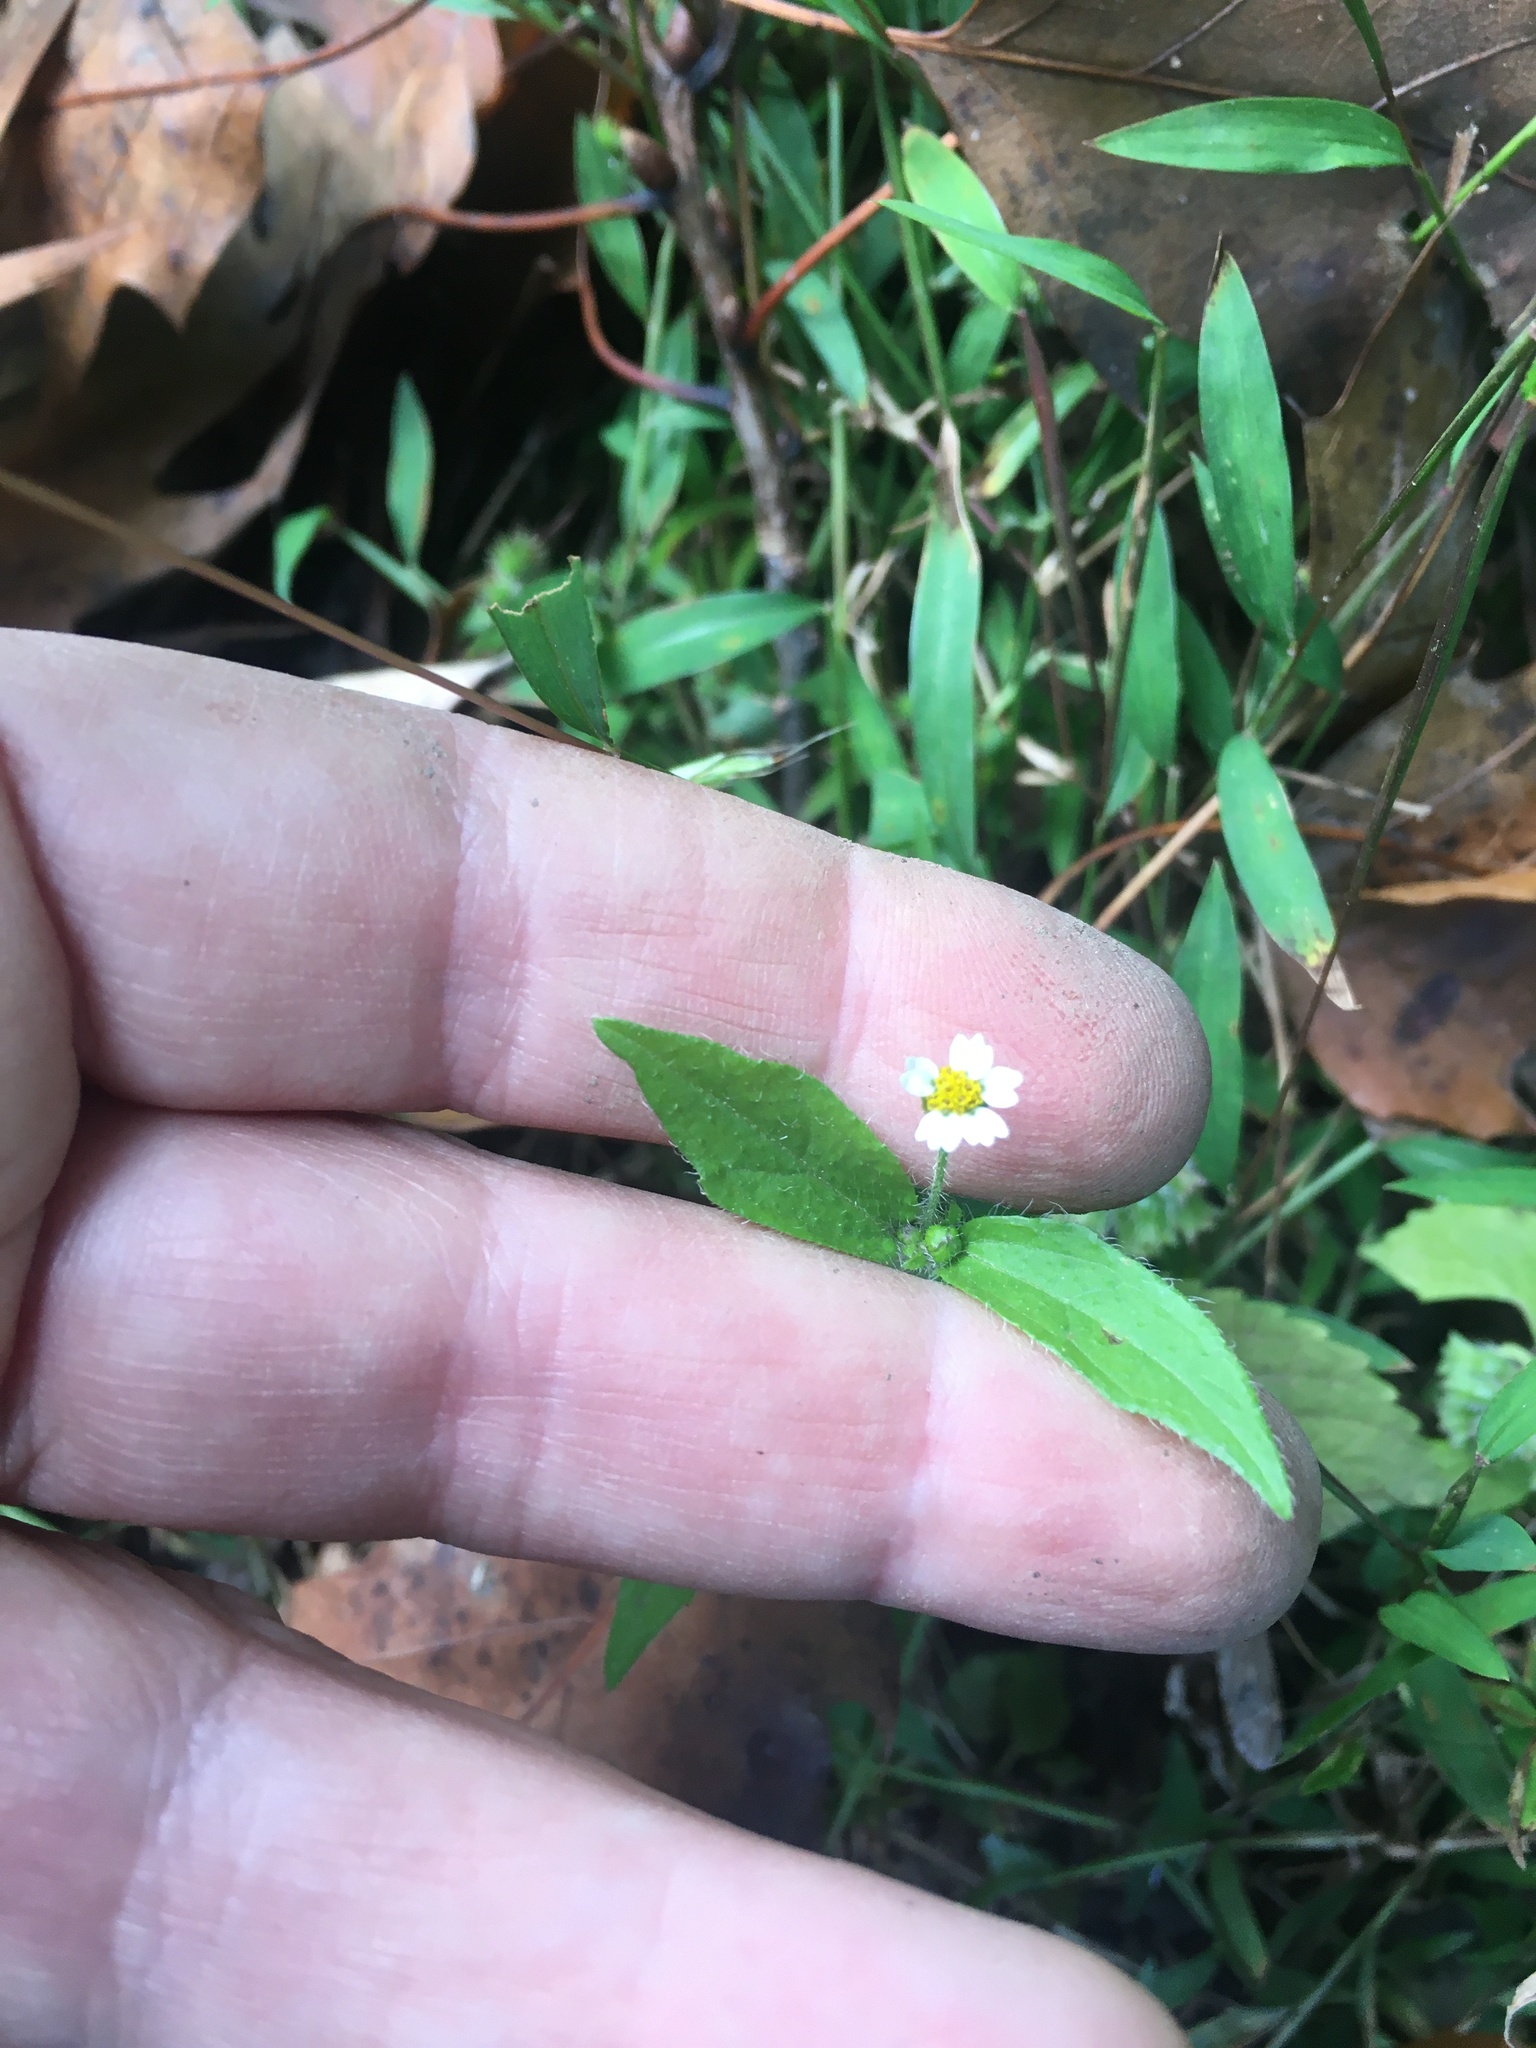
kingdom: Plantae
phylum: Tracheophyta
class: Magnoliopsida
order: Asterales
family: Asteraceae
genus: Galinsoga
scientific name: Galinsoga quadriradiata
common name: Shaggy soldier
